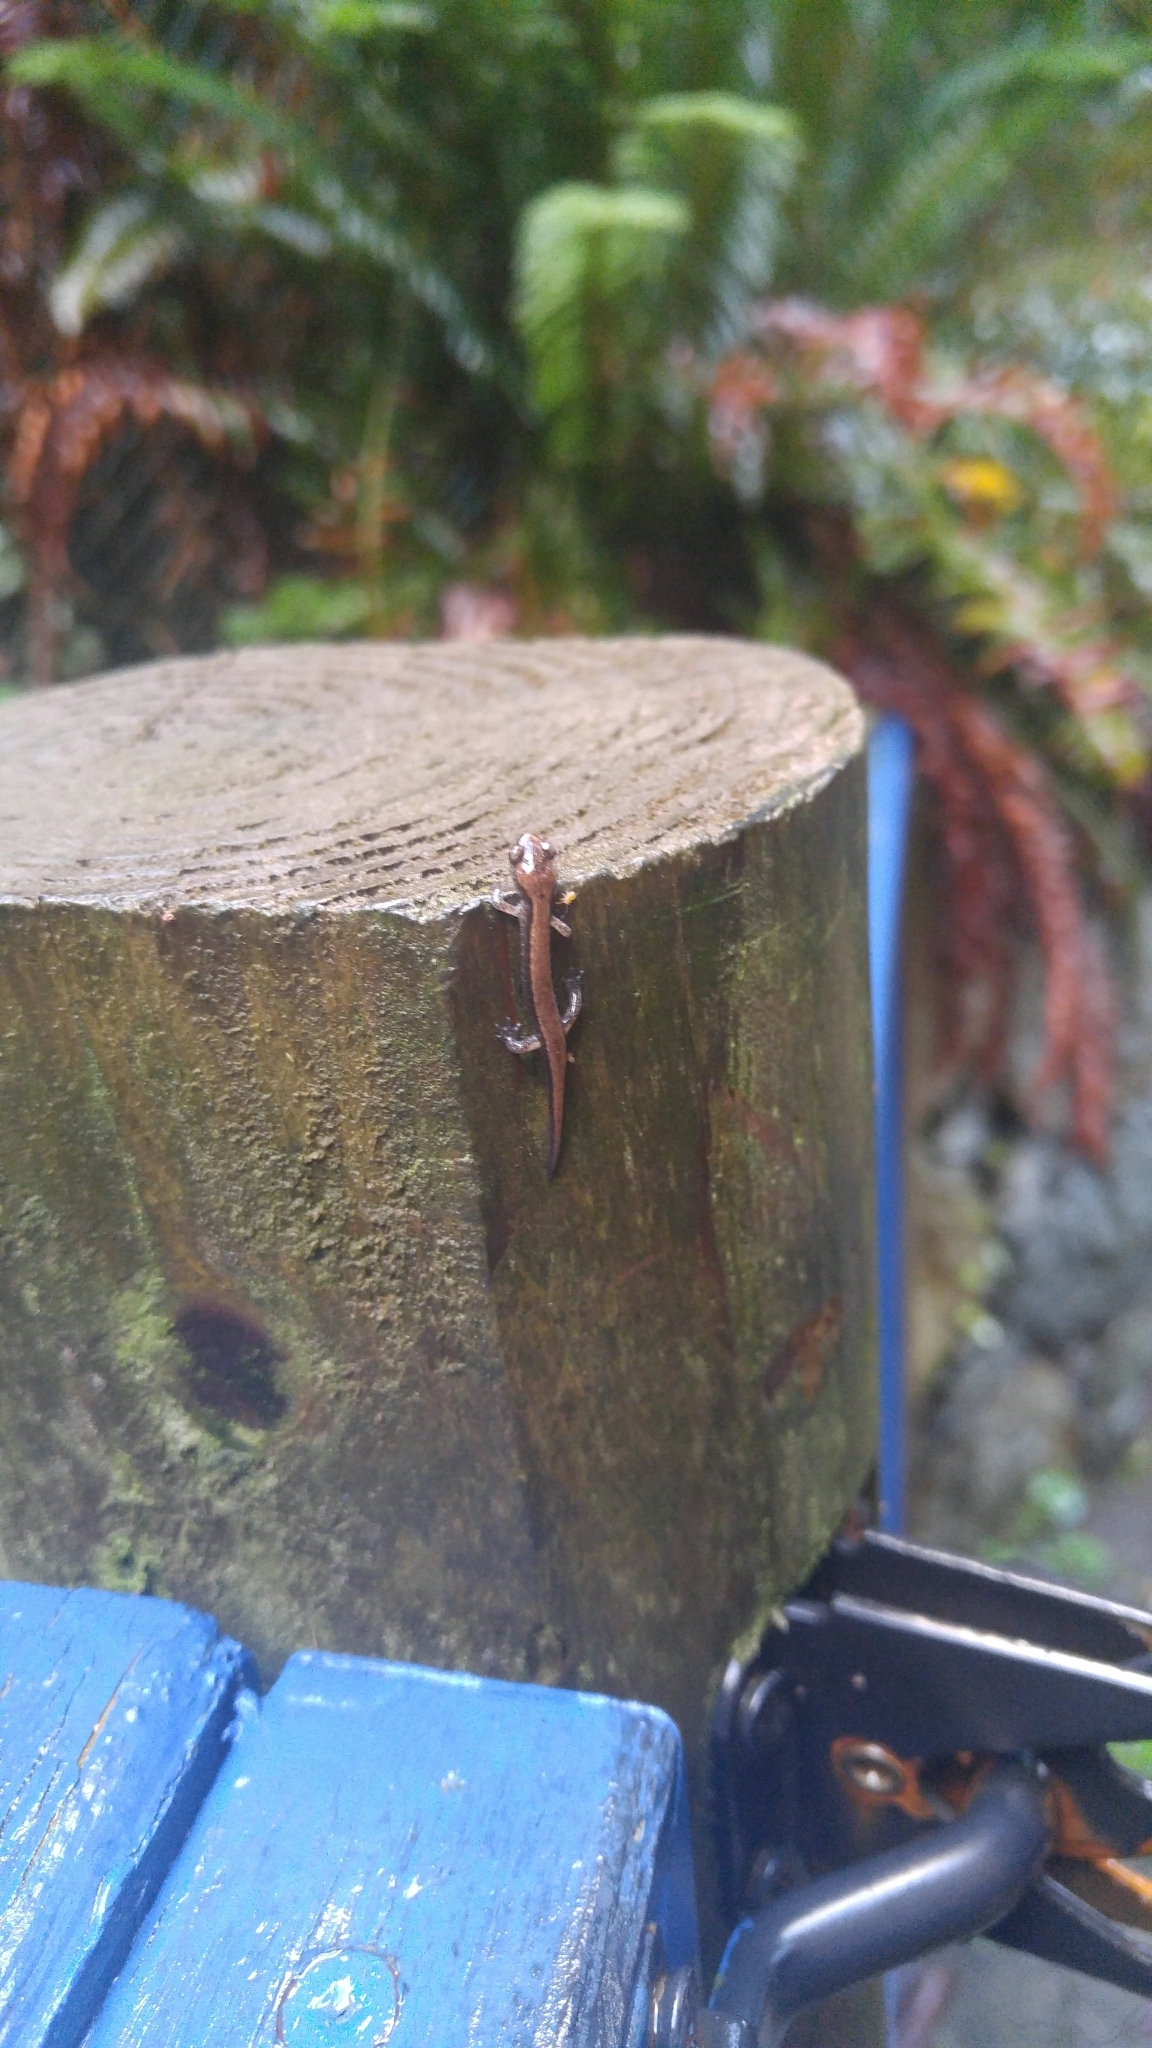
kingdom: Animalia
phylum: Chordata
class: Amphibia
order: Caudata
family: Plethodontidae
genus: Plethodon
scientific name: Plethodon vehiculum
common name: Western red-backed salamander
